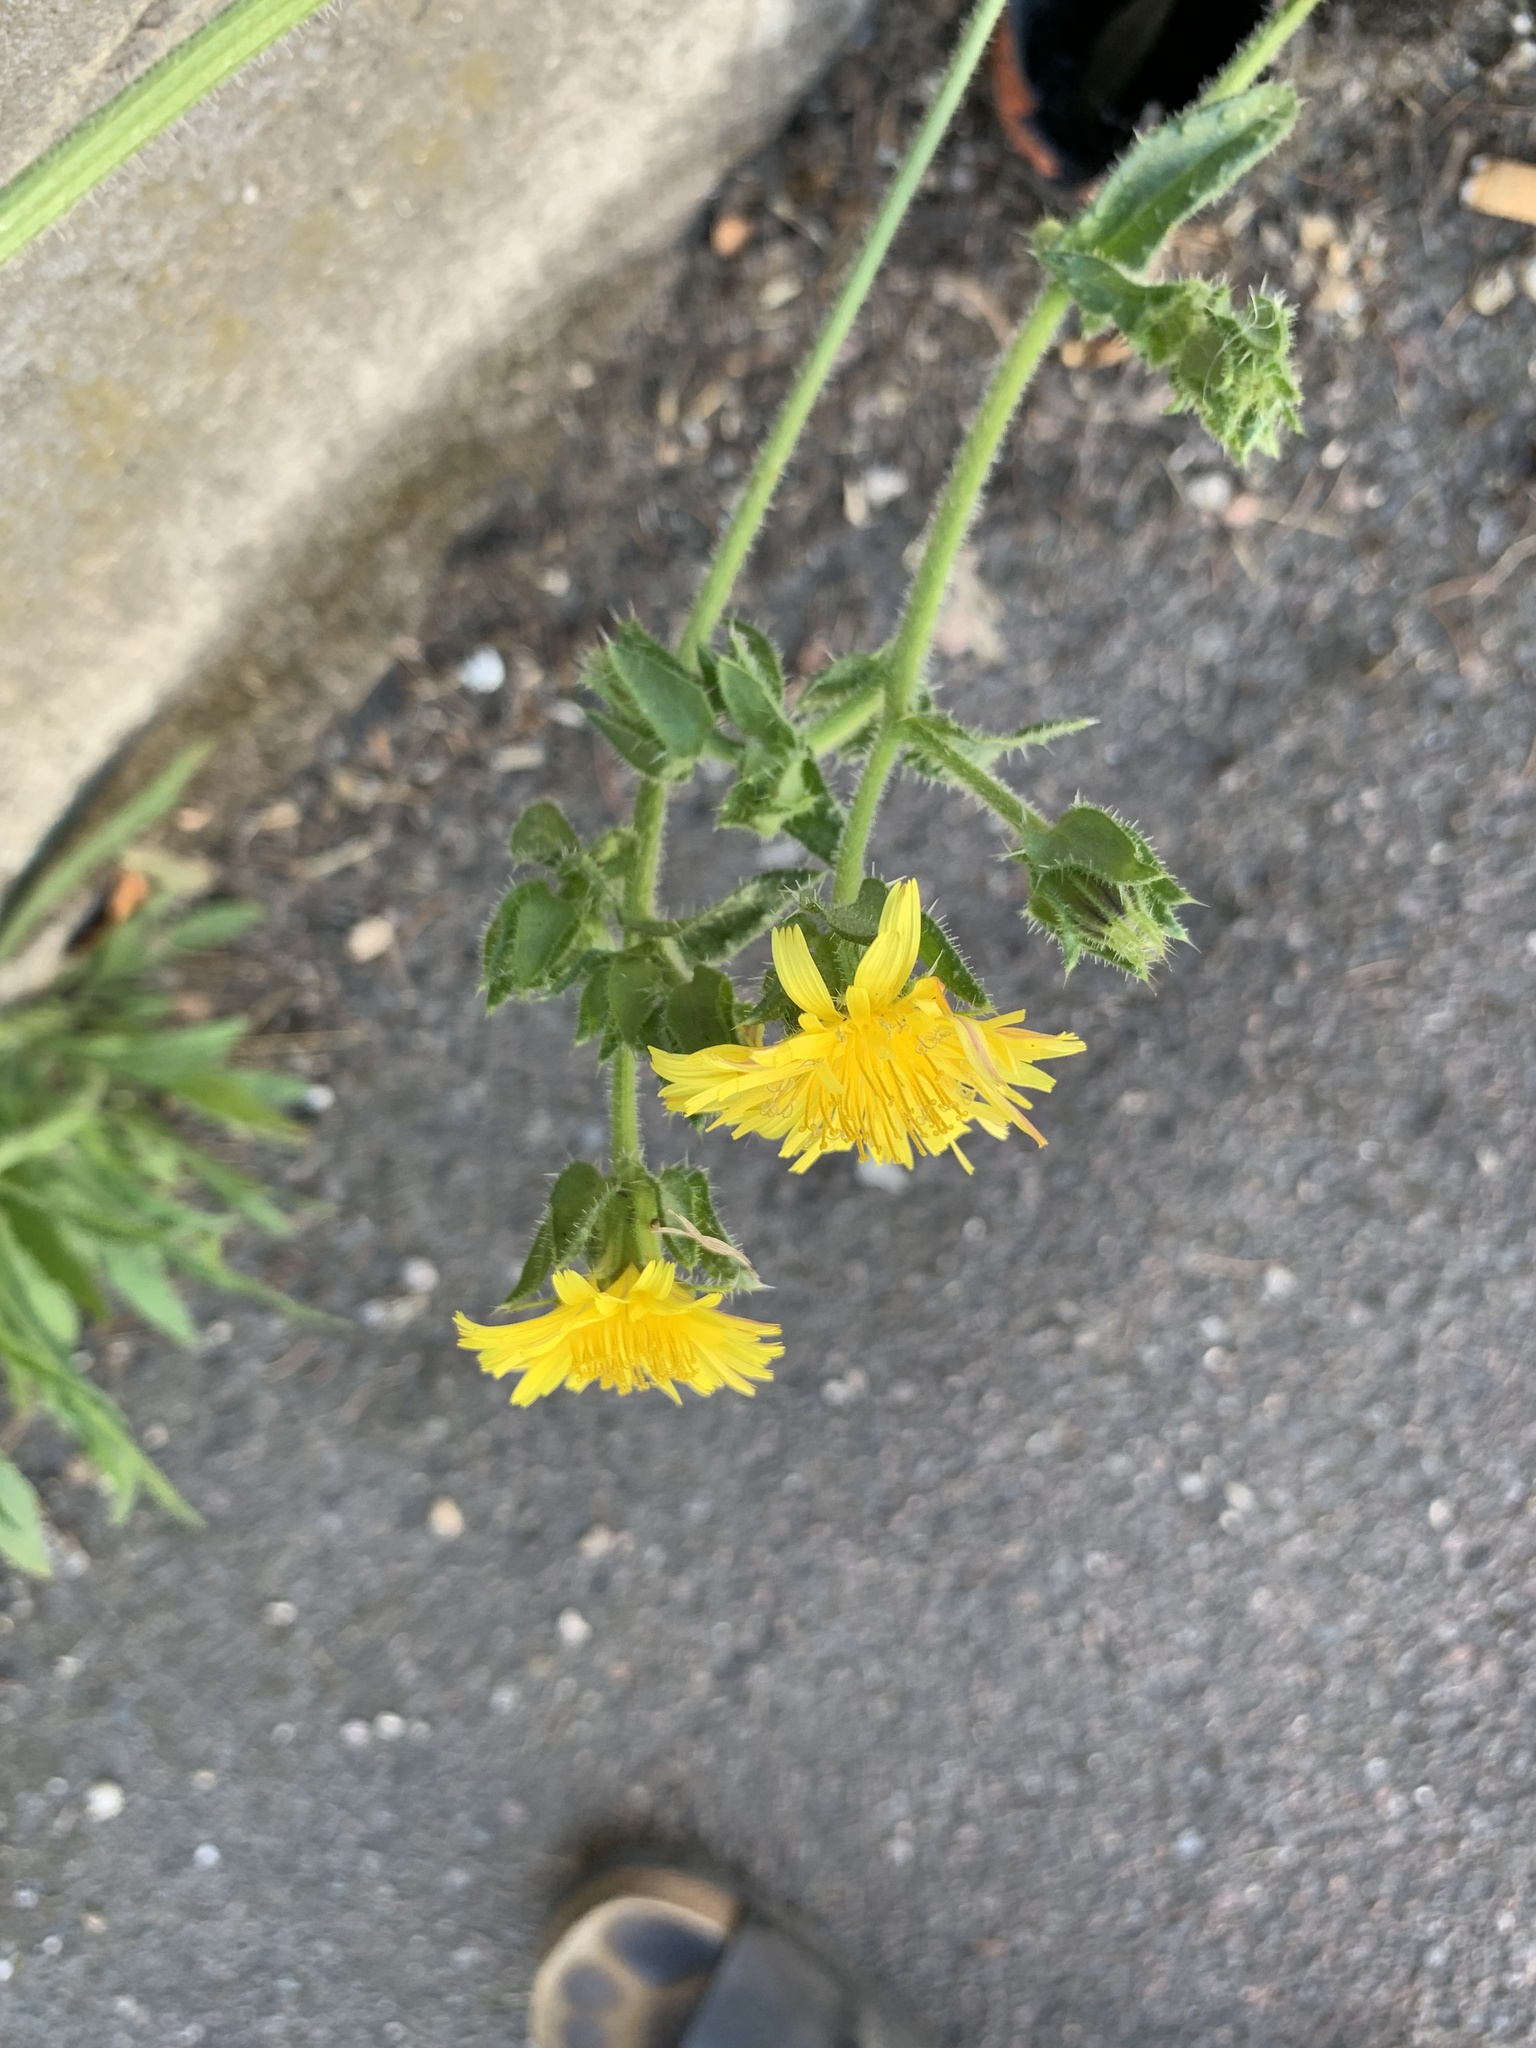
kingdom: Plantae
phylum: Tracheophyta
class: Magnoliopsida
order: Asterales
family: Asteraceae
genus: Helminthotheca
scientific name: Helminthotheca echioides
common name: Ox-tongue
